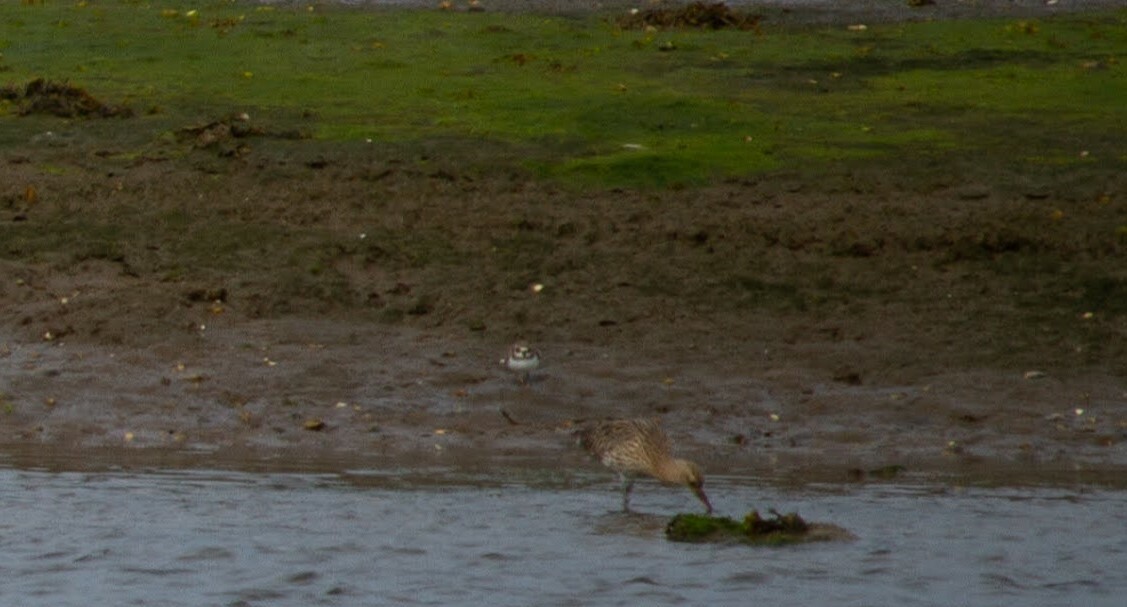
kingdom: Animalia
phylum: Chordata
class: Aves
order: Charadriiformes
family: Charadriidae
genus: Charadrius
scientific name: Charadrius hiaticula
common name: Common ringed plover
